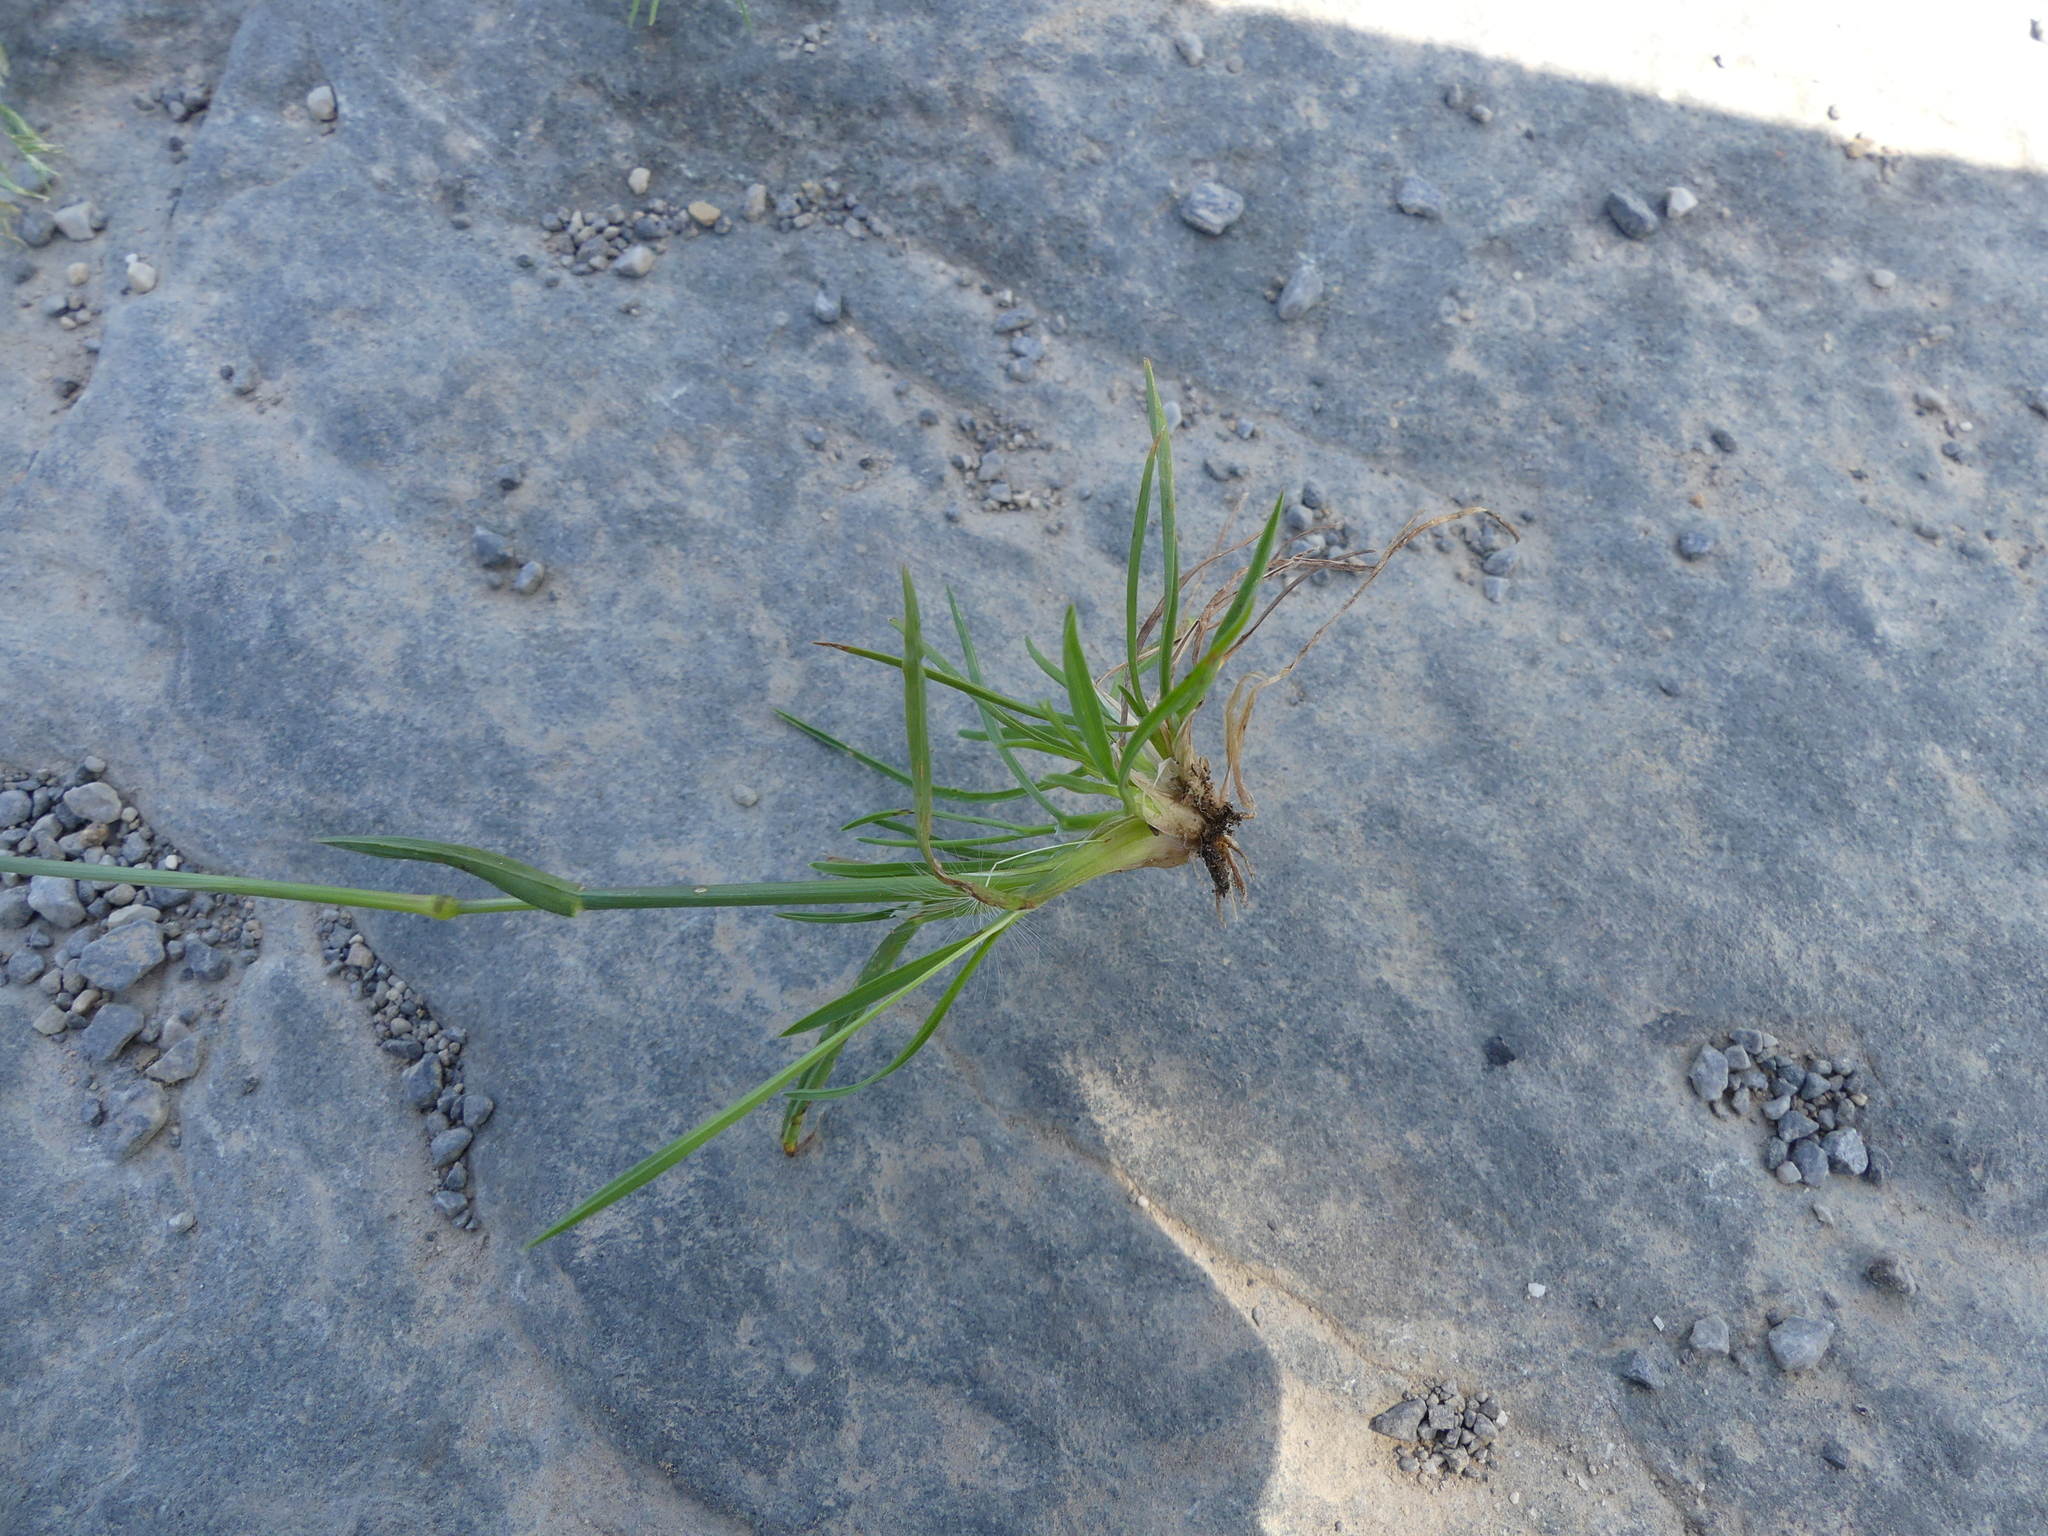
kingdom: Plantae
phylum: Tracheophyta
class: Liliopsida
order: Poales
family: Poaceae
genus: Poa
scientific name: Poa bulbosa
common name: Bulbous bluegrass
